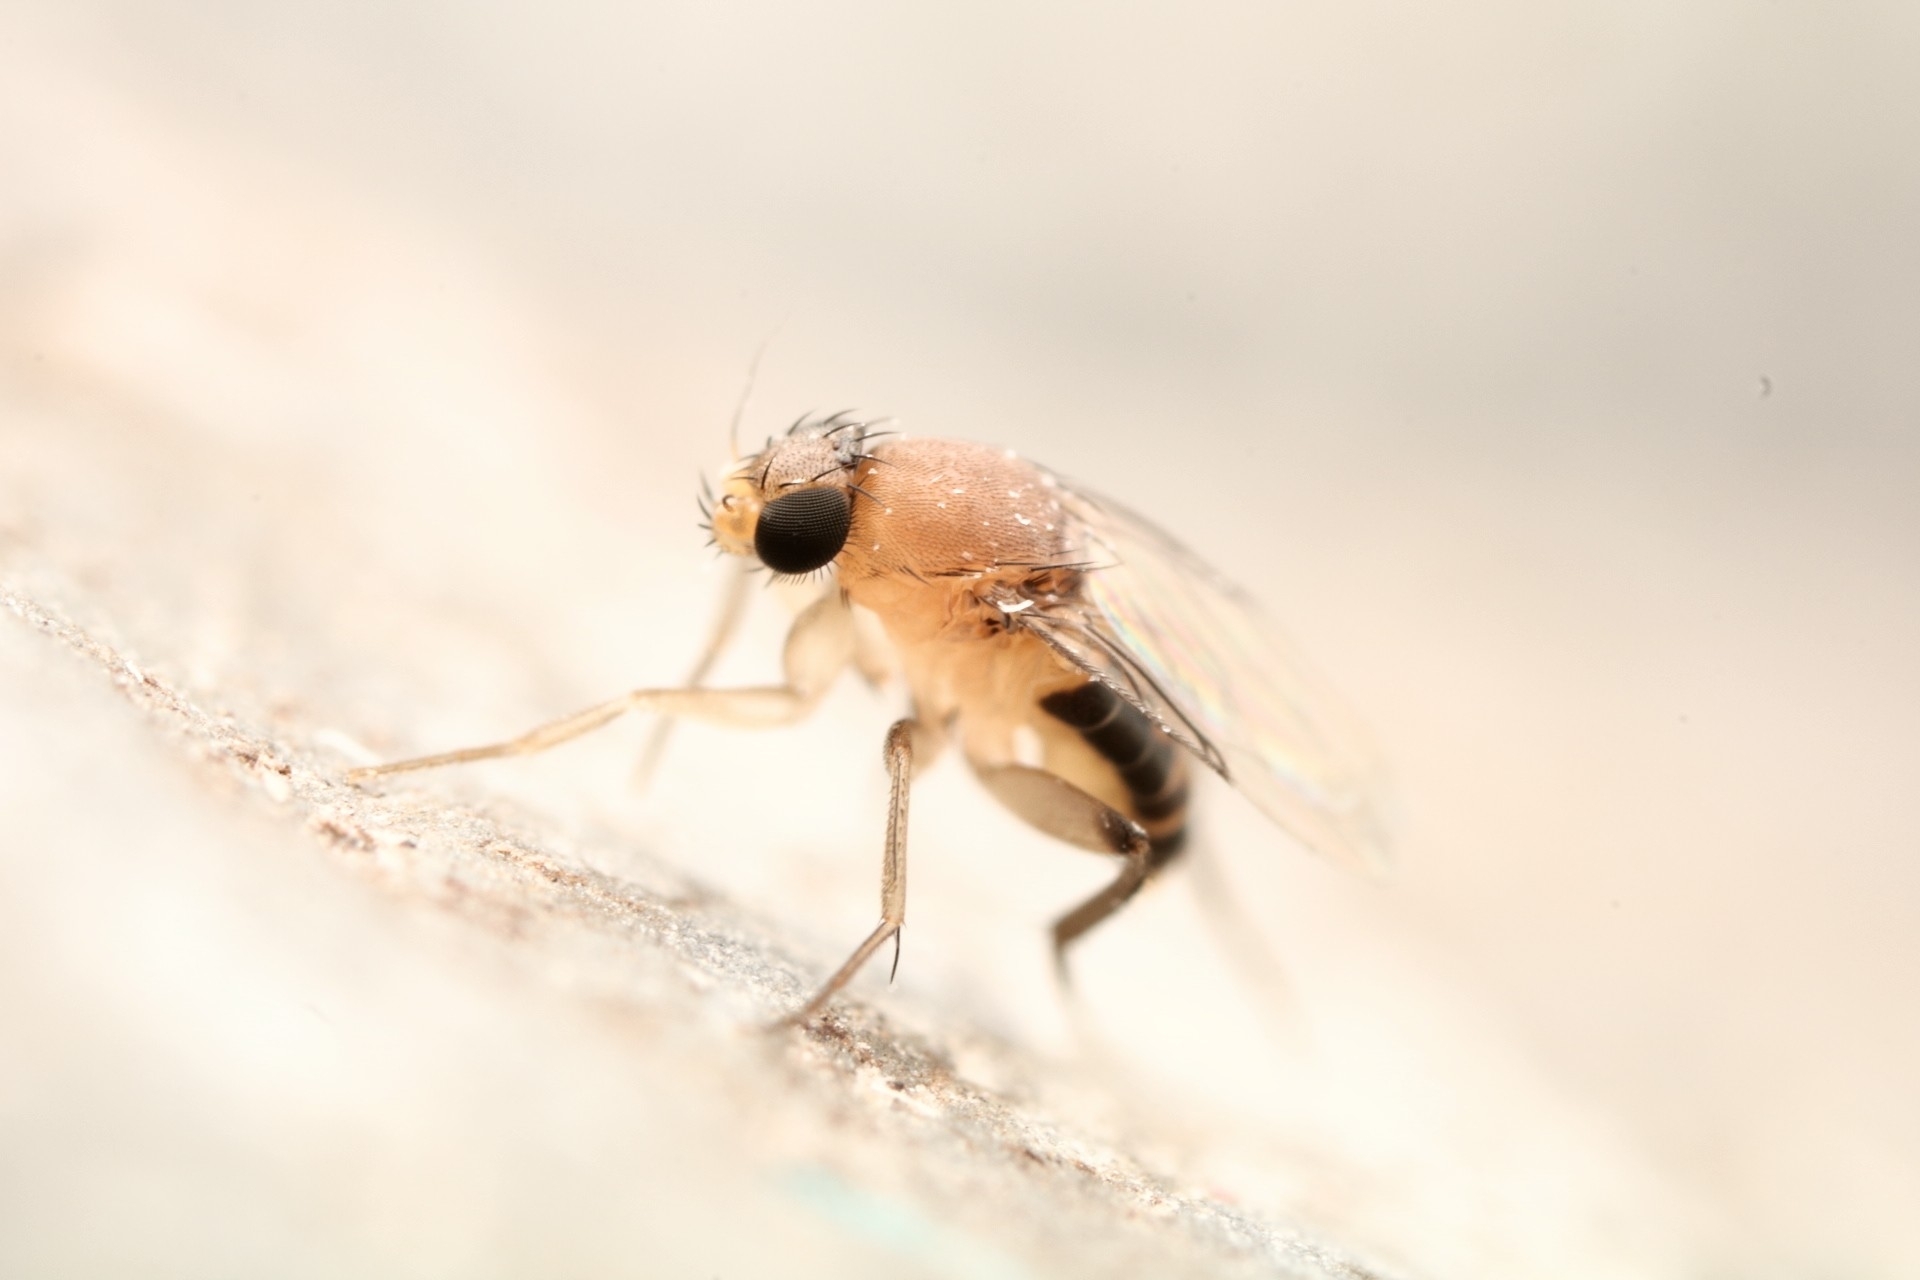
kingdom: Animalia
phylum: Arthropoda
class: Insecta
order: Diptera
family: Phoridae
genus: Megaselia
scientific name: Megaselia scalaris
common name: Scuttle fly
